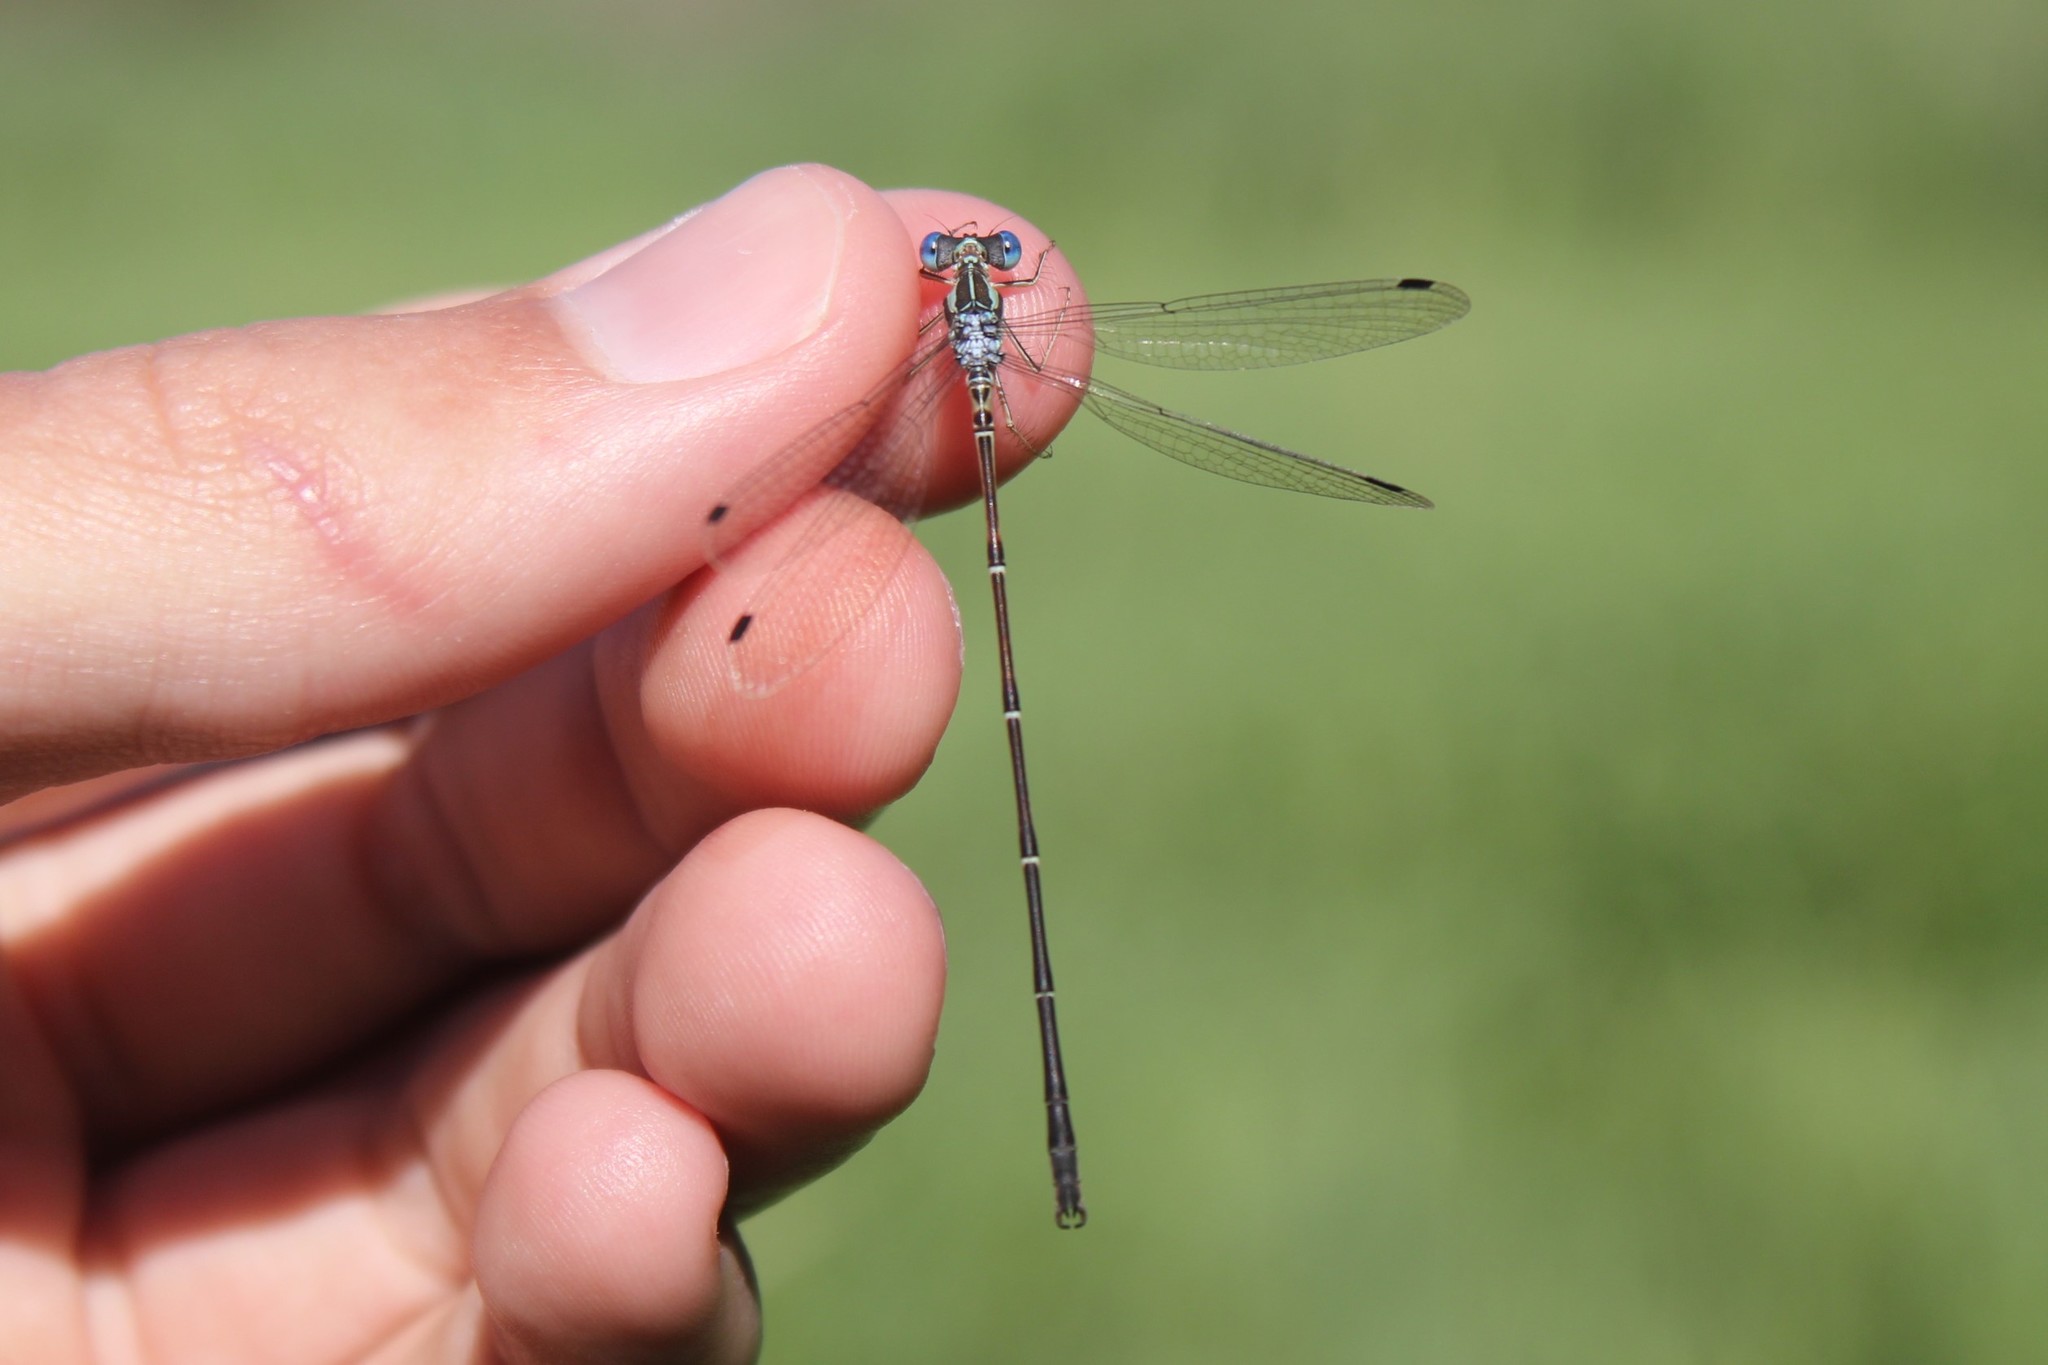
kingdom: Animalia
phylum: Arthropoda
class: Insecta
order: Odonata
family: Lestidae
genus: Lestes
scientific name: Lestes rectangularis
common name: Slender spreadwing
